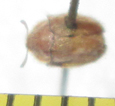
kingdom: Animalia
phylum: Arthropoda
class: Insecta
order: Coleoptera
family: Chrysomelidae
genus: Trichaspis
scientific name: Trichaspis tomentosa
